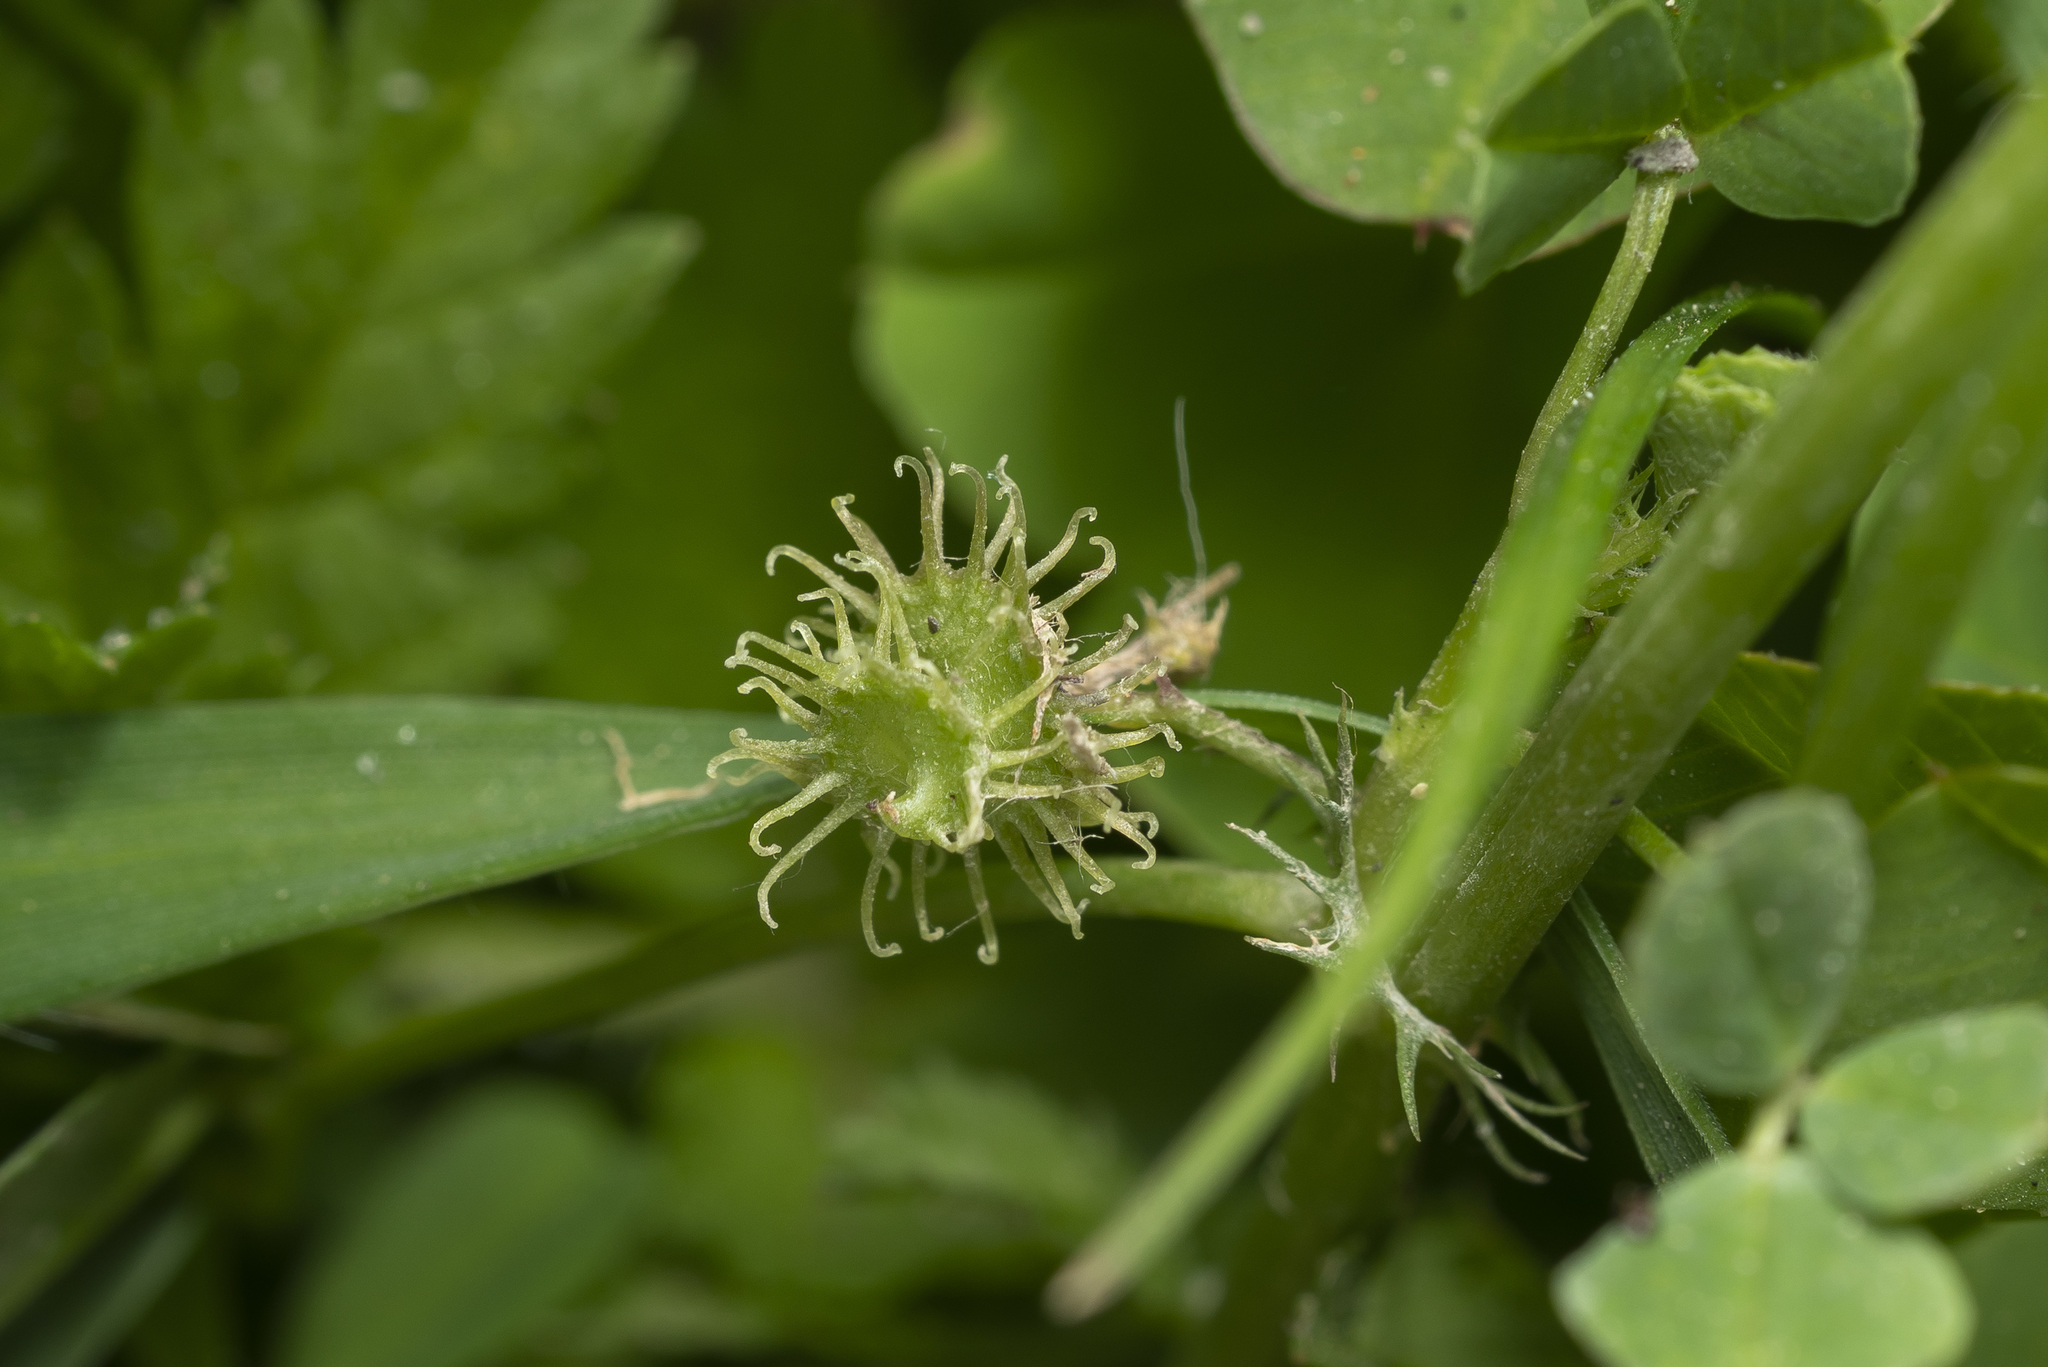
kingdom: Plantae
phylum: Tracheophyta
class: Magnoliopsida
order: Fabales
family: Fabaceae
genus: Medicago
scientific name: Medicago polymorpha
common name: Burclover
